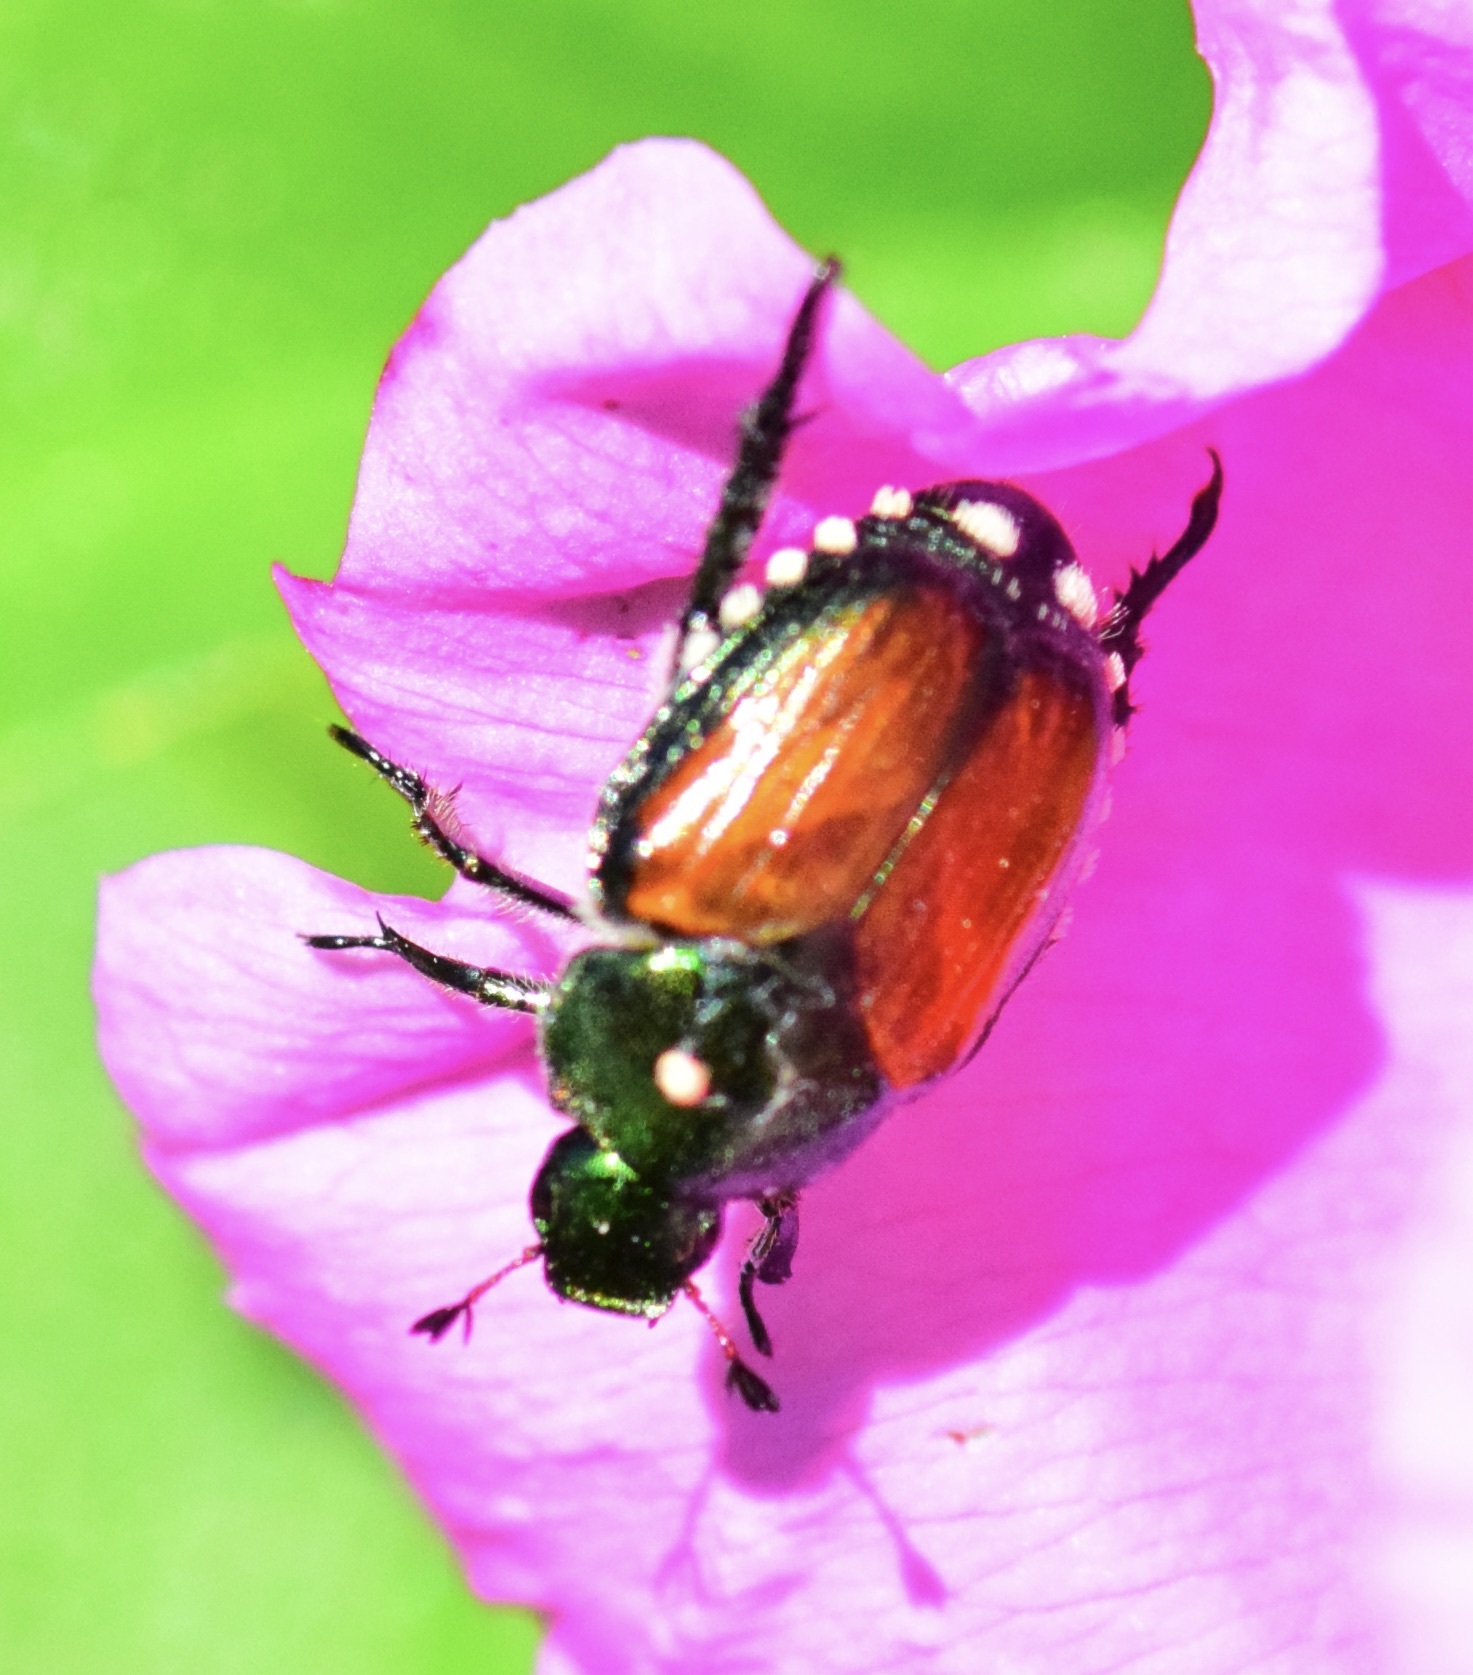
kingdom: Animalia
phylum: Arthropoda
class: Insecta
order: Coleoptera
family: Scarabaeidae
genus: Popillia
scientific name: Popillia japonica
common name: Japanese beetle
